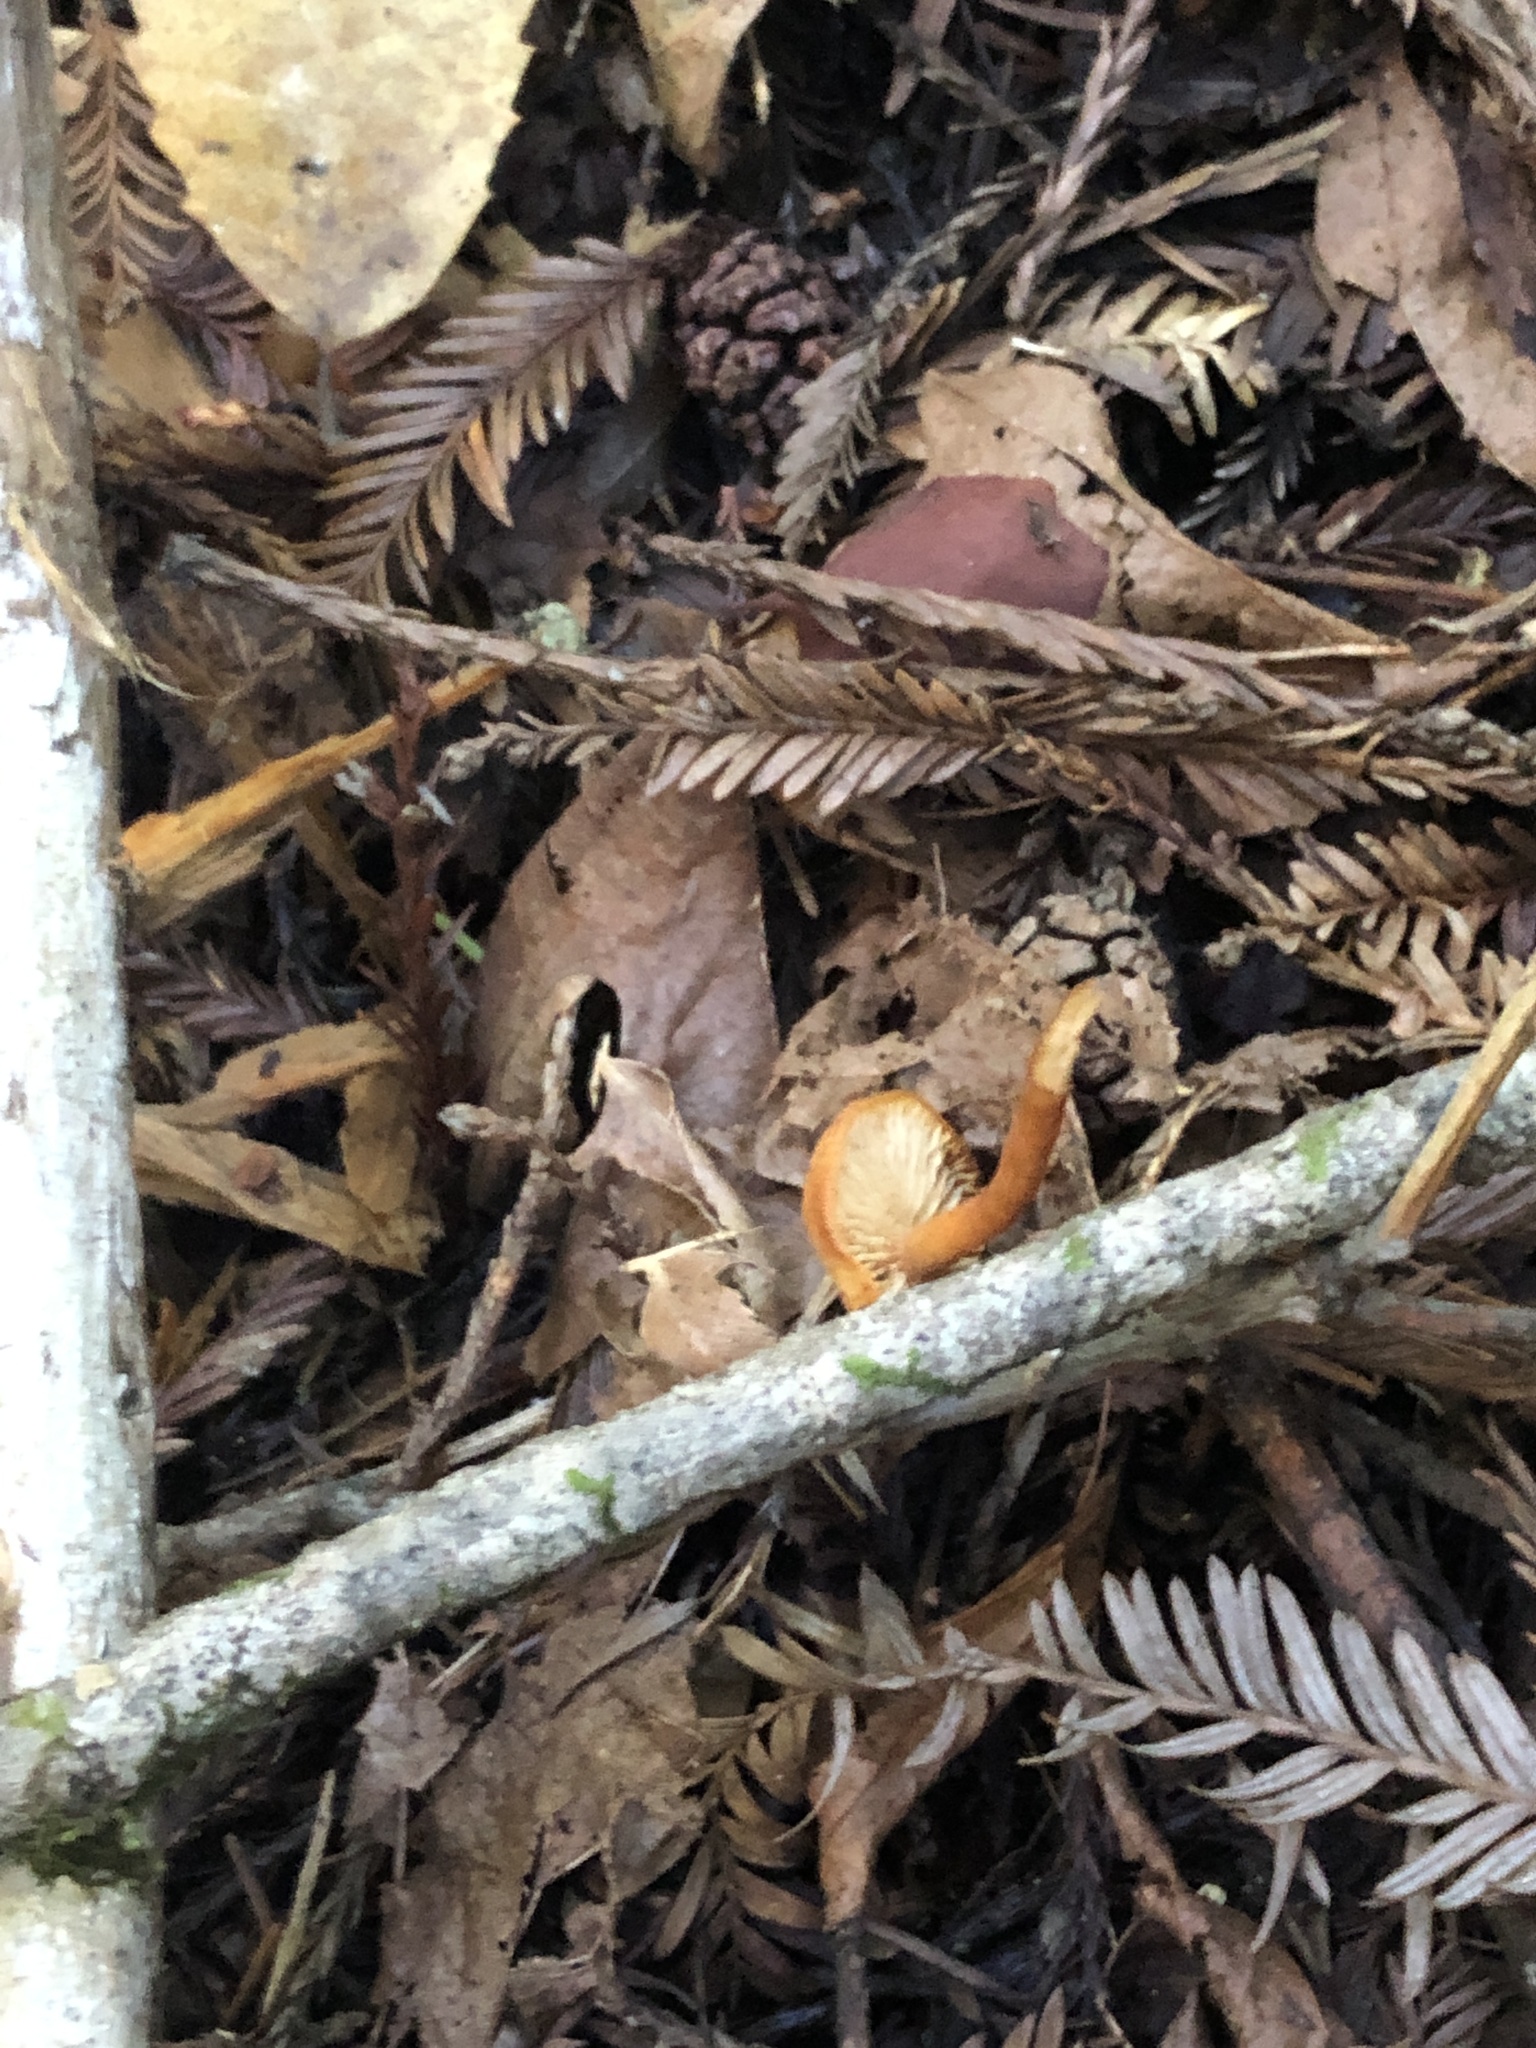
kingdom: Fungi
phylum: Basidiomycota
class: Agaricomycetes
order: Agaricales
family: Entolomataceae
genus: Rhodophana
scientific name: Rhodophana nitellina
